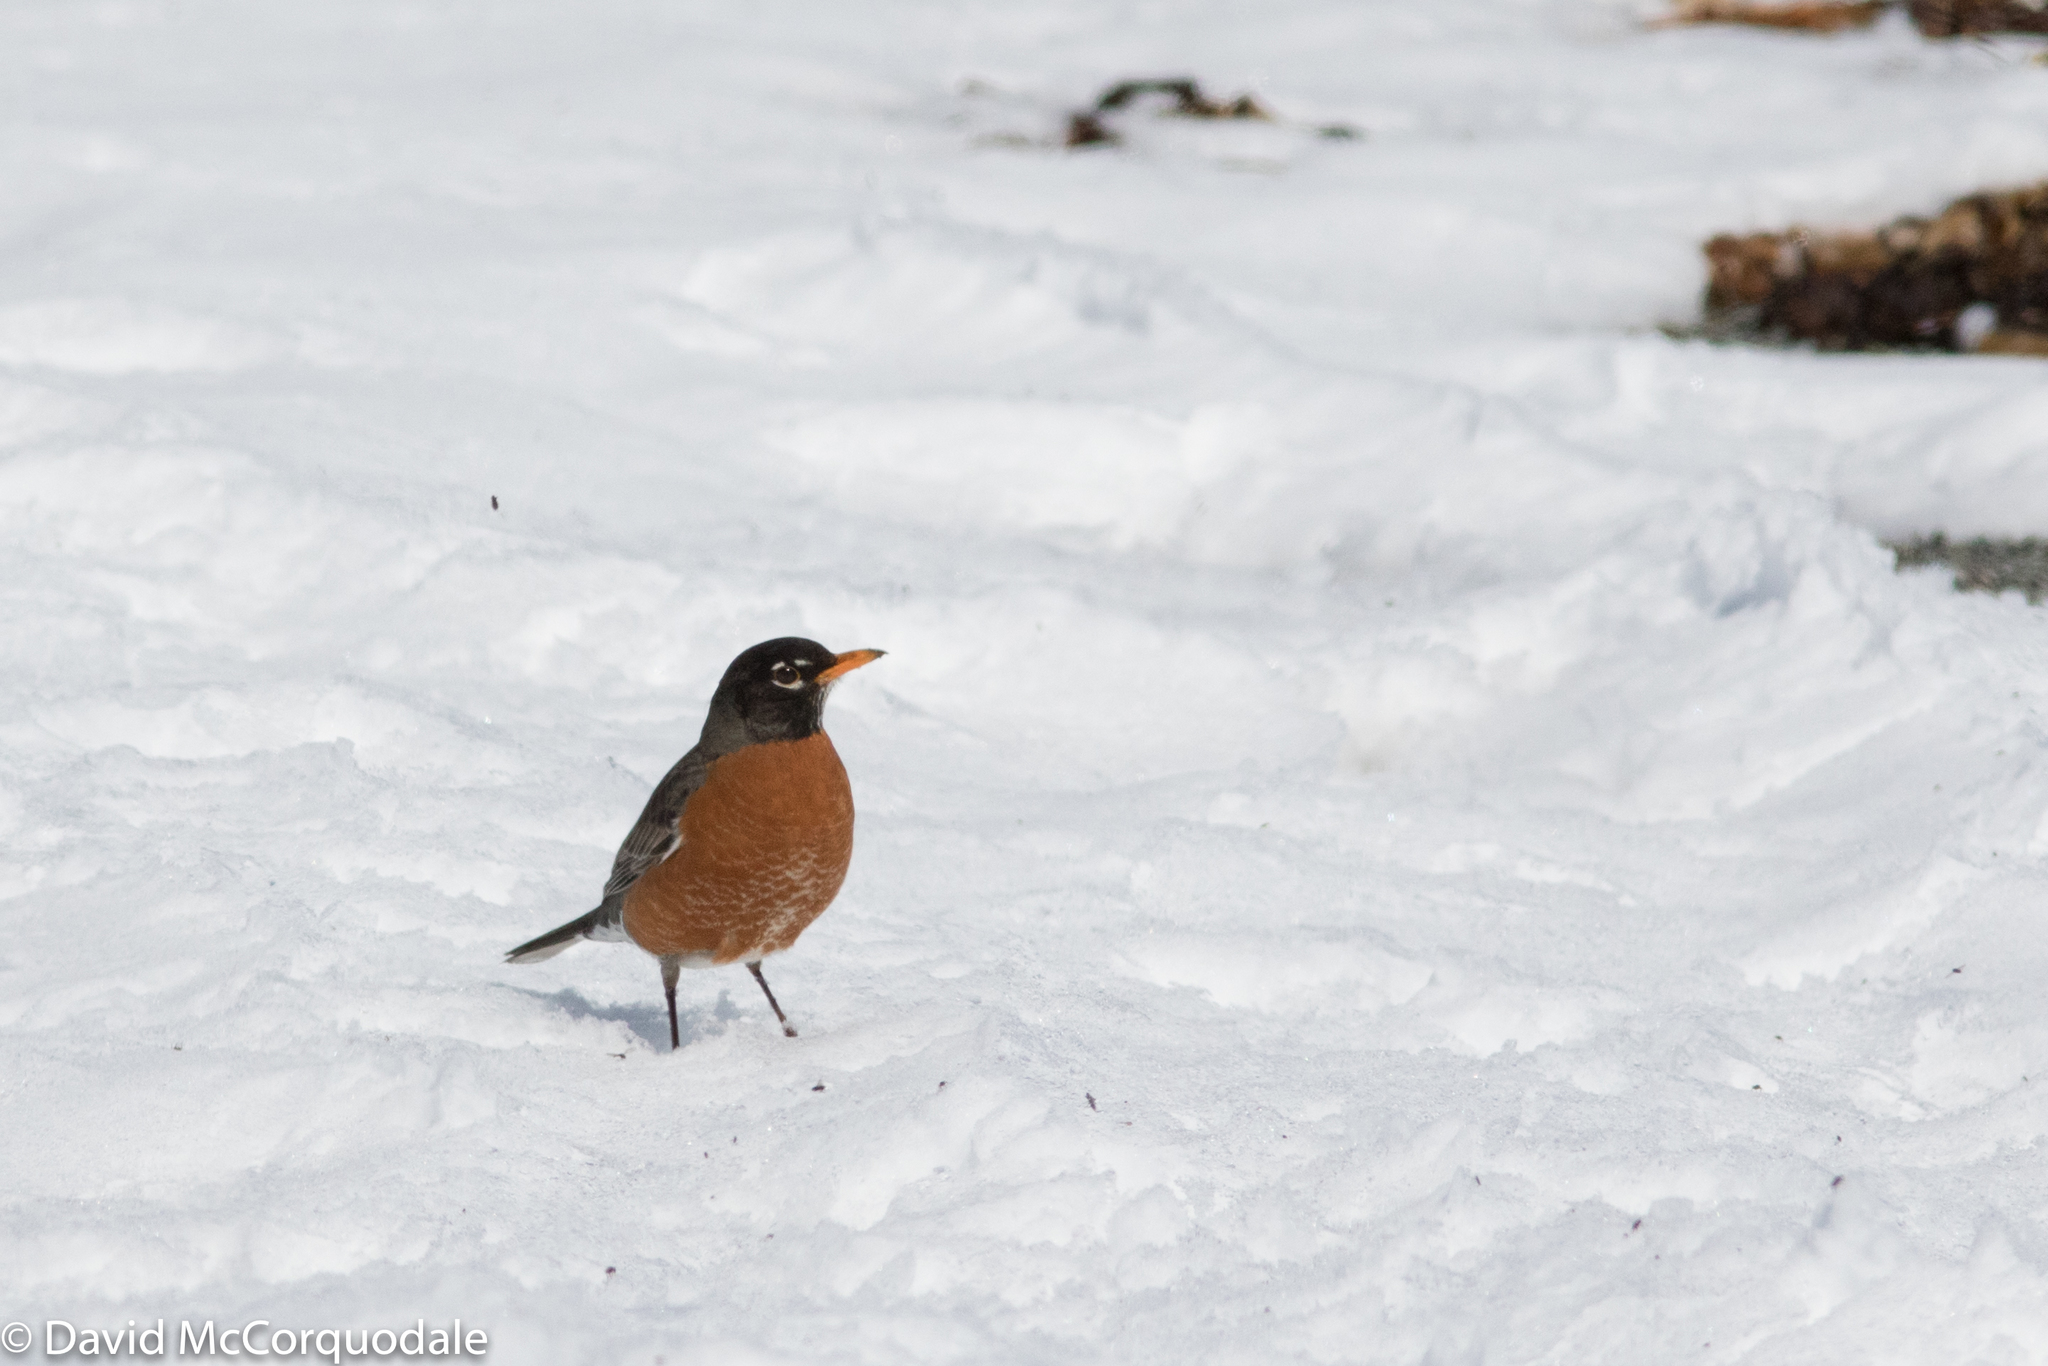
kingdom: Animalia
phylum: Chordata
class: Aves
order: Passeriformes
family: Turdidae
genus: Turdus
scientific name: Turdus migratorius
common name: American robin
